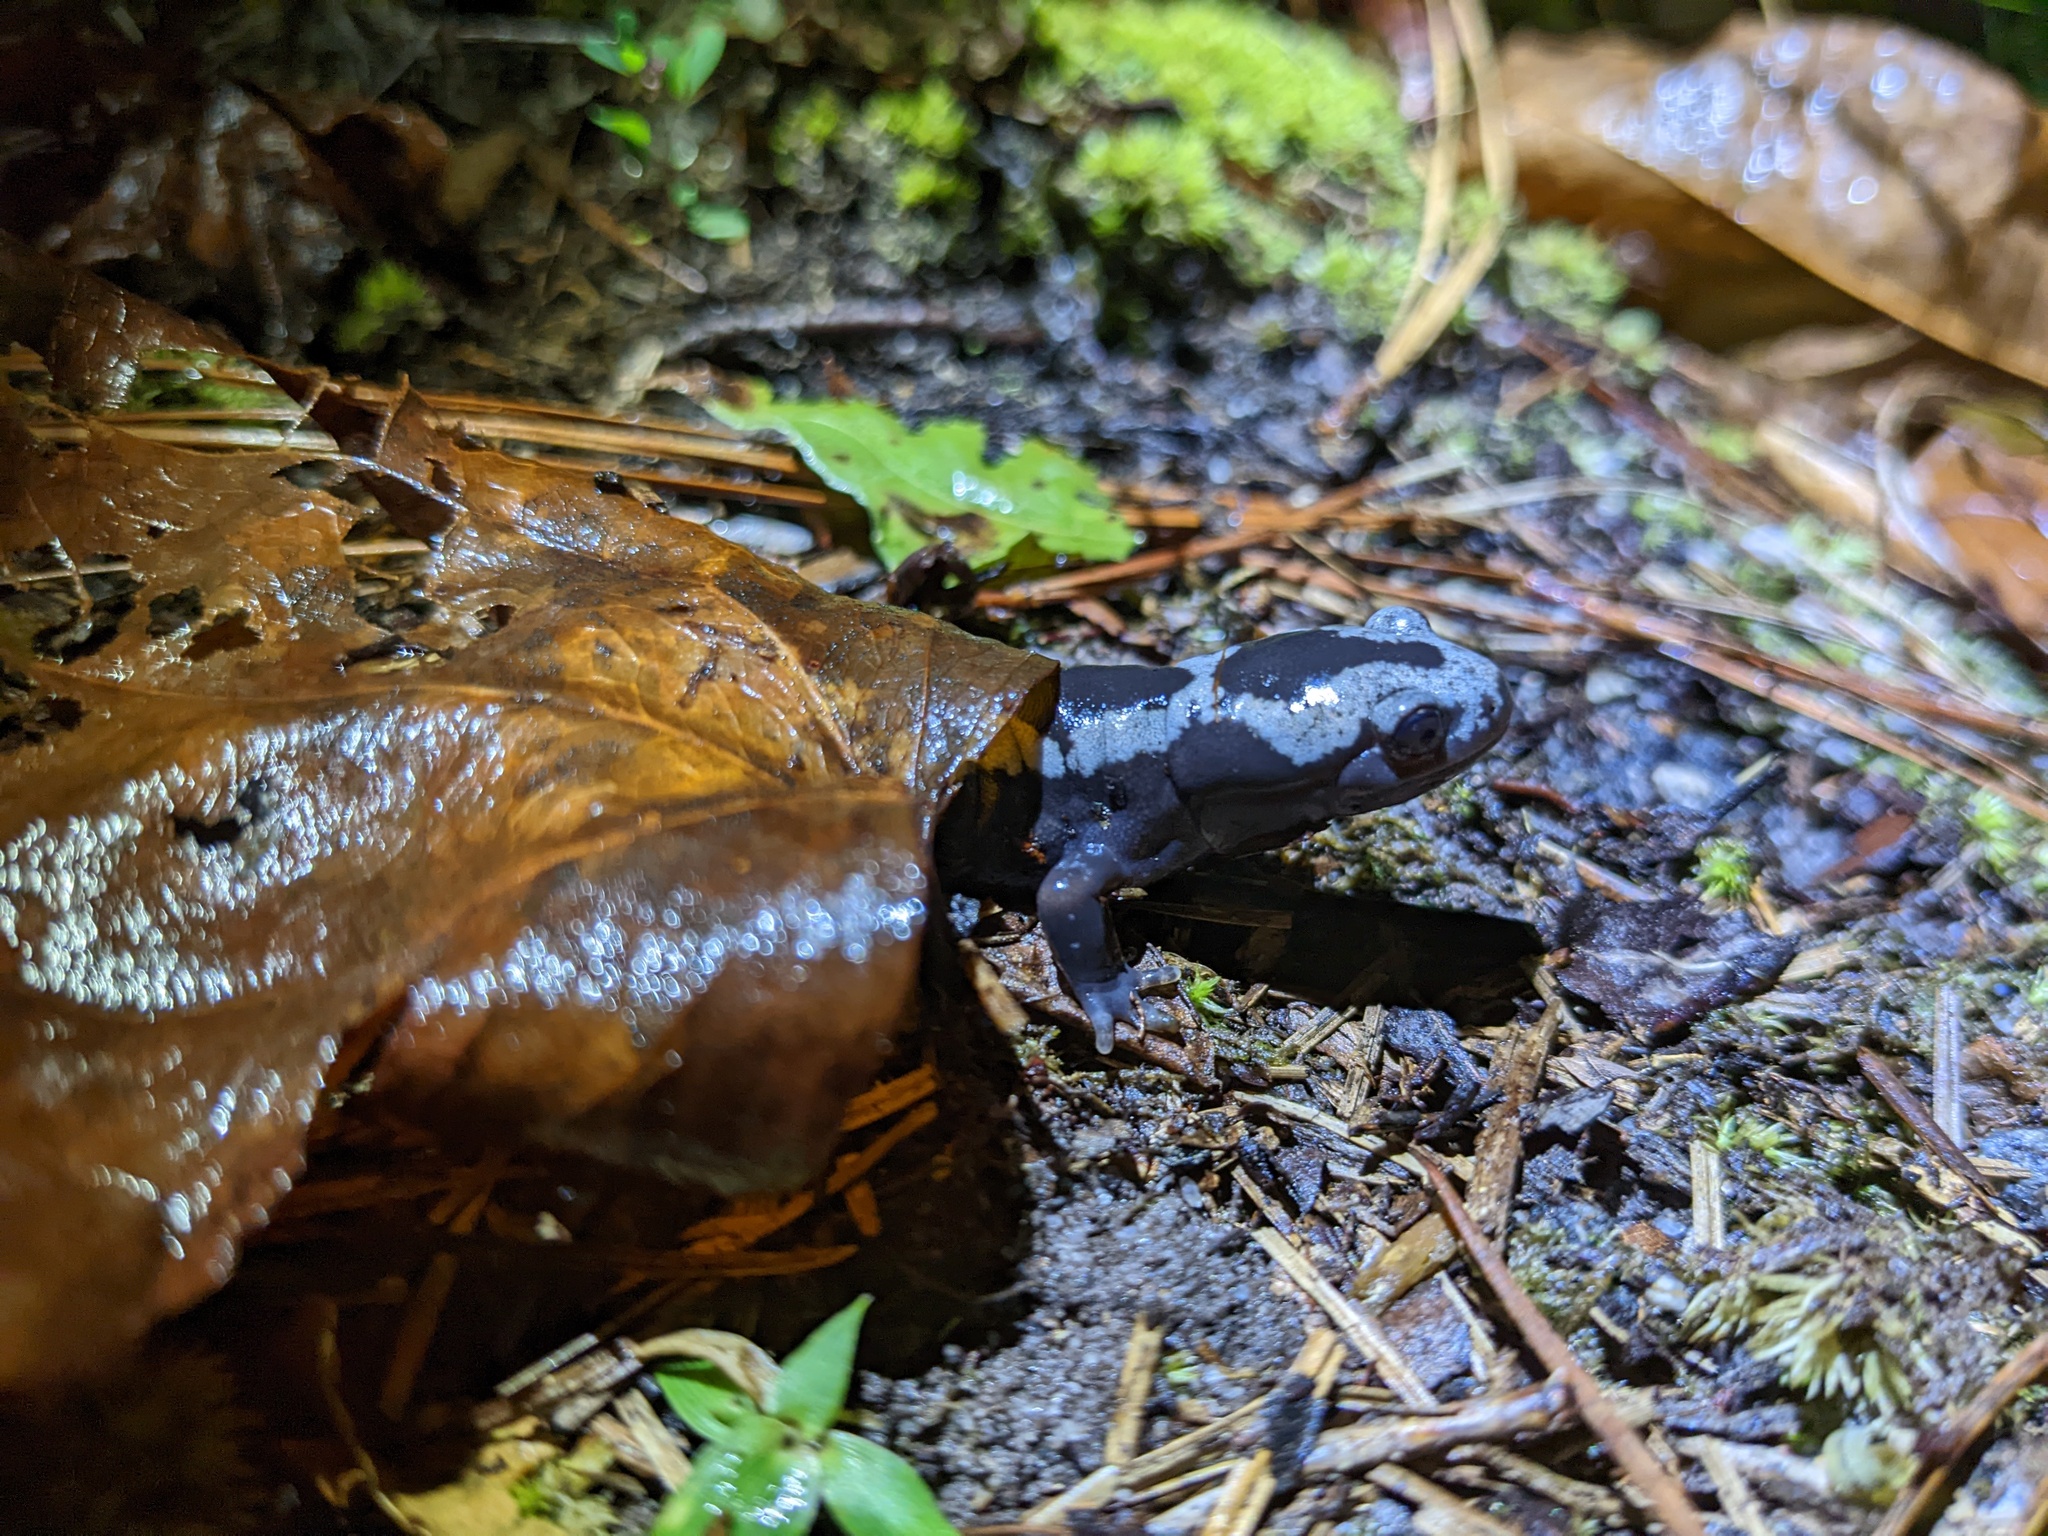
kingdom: Animalia
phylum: Chordata
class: Amphibia
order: Caudata
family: Ambystomatidae
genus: Ambystoma
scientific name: Ambystoma opacum
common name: Marbled salamander
